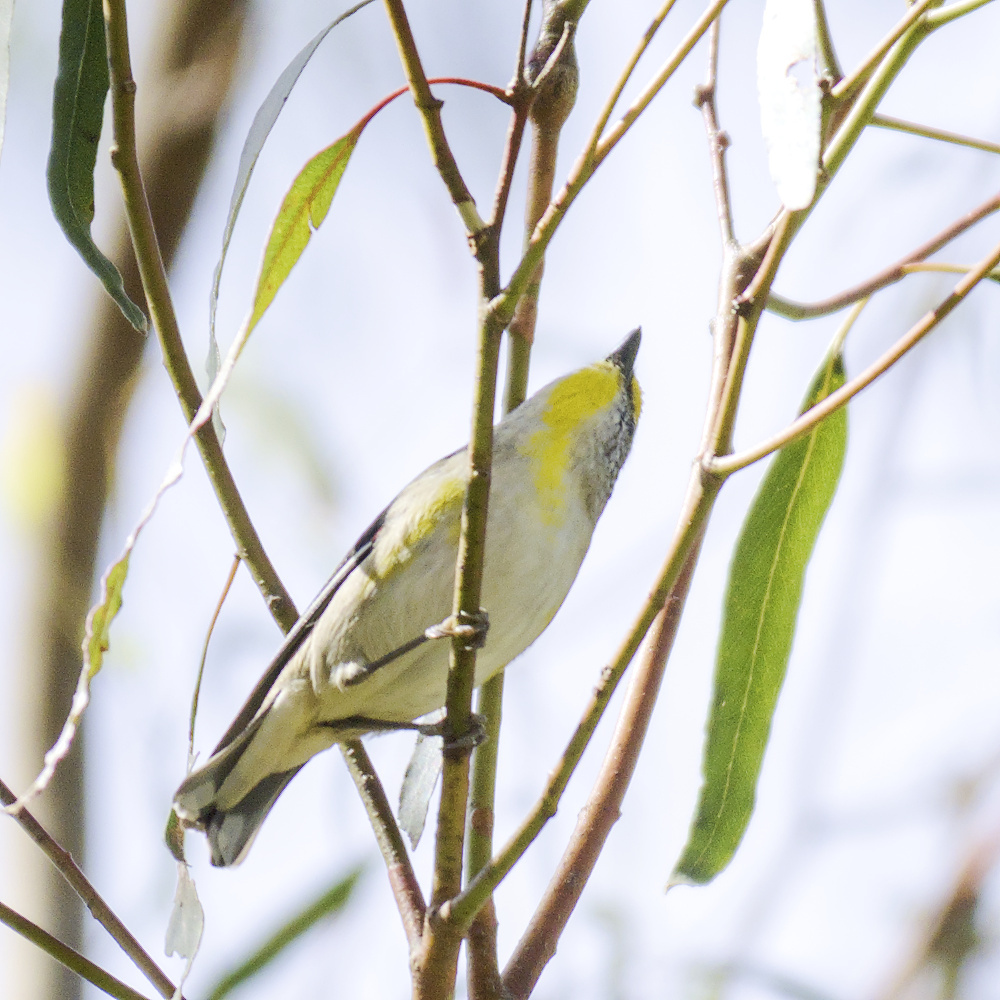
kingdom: Animalia
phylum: Chordata
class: Aves
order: Passeriformes
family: Pardalotidae
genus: Pardalotus
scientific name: Pardalotus striatus
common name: Striated pardalote
